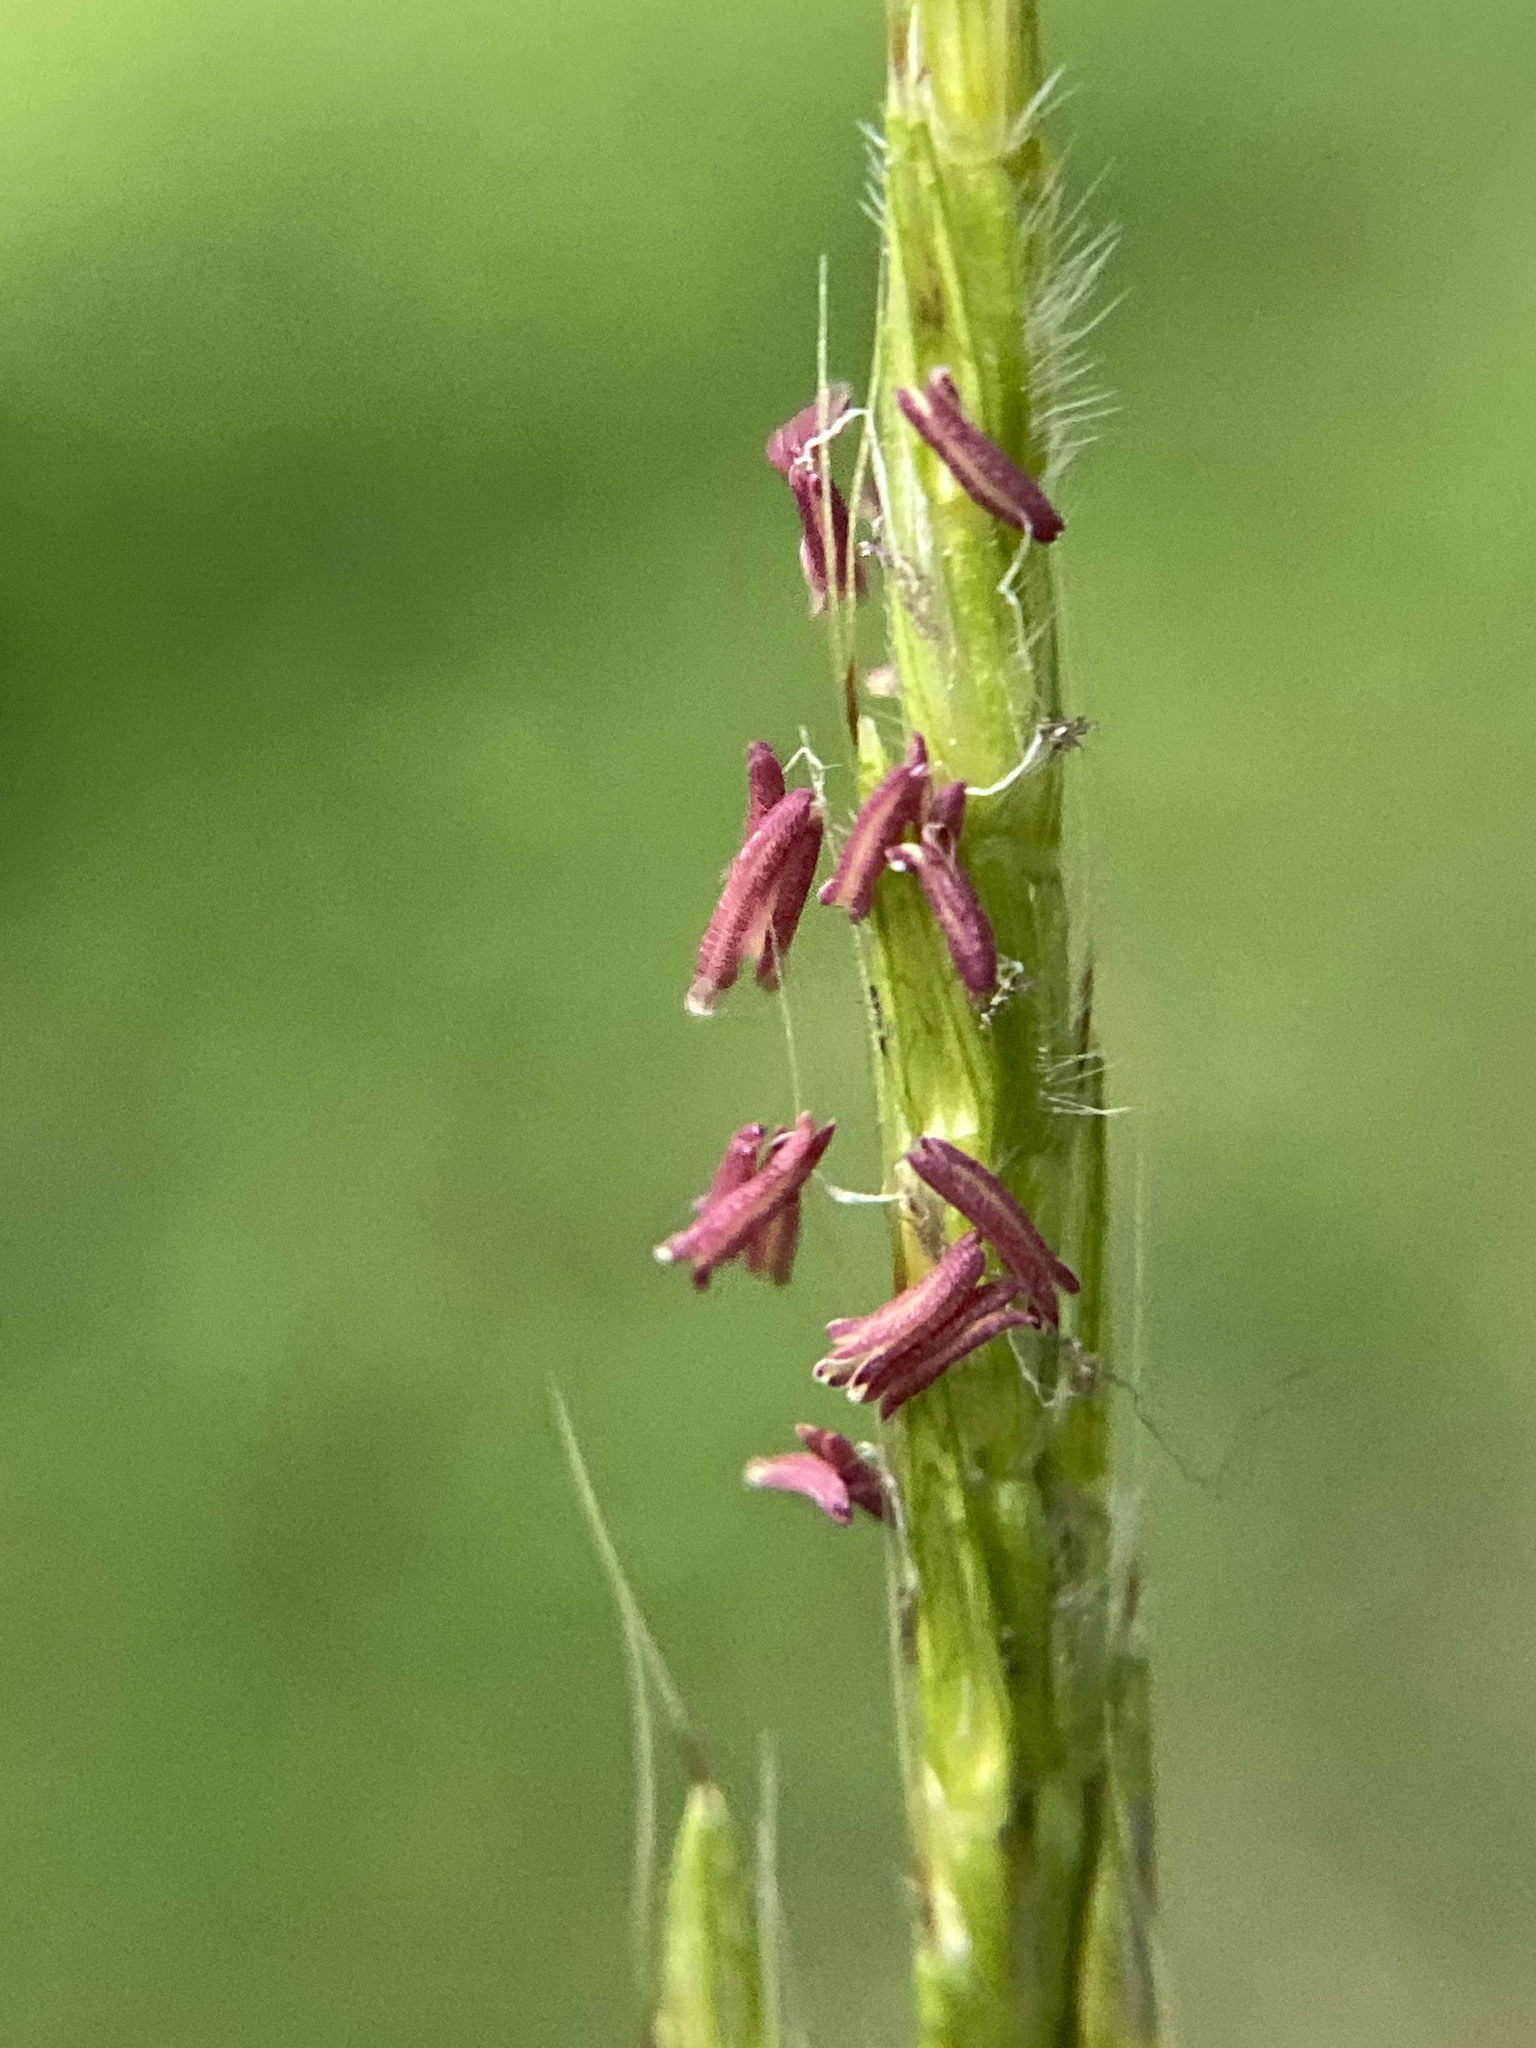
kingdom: Plantae
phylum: Tracheophyta
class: Liliopsida
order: Poales
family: Poaceae
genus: Microstegium
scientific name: Microstegium vimineum
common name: Japanese stiltgrass
